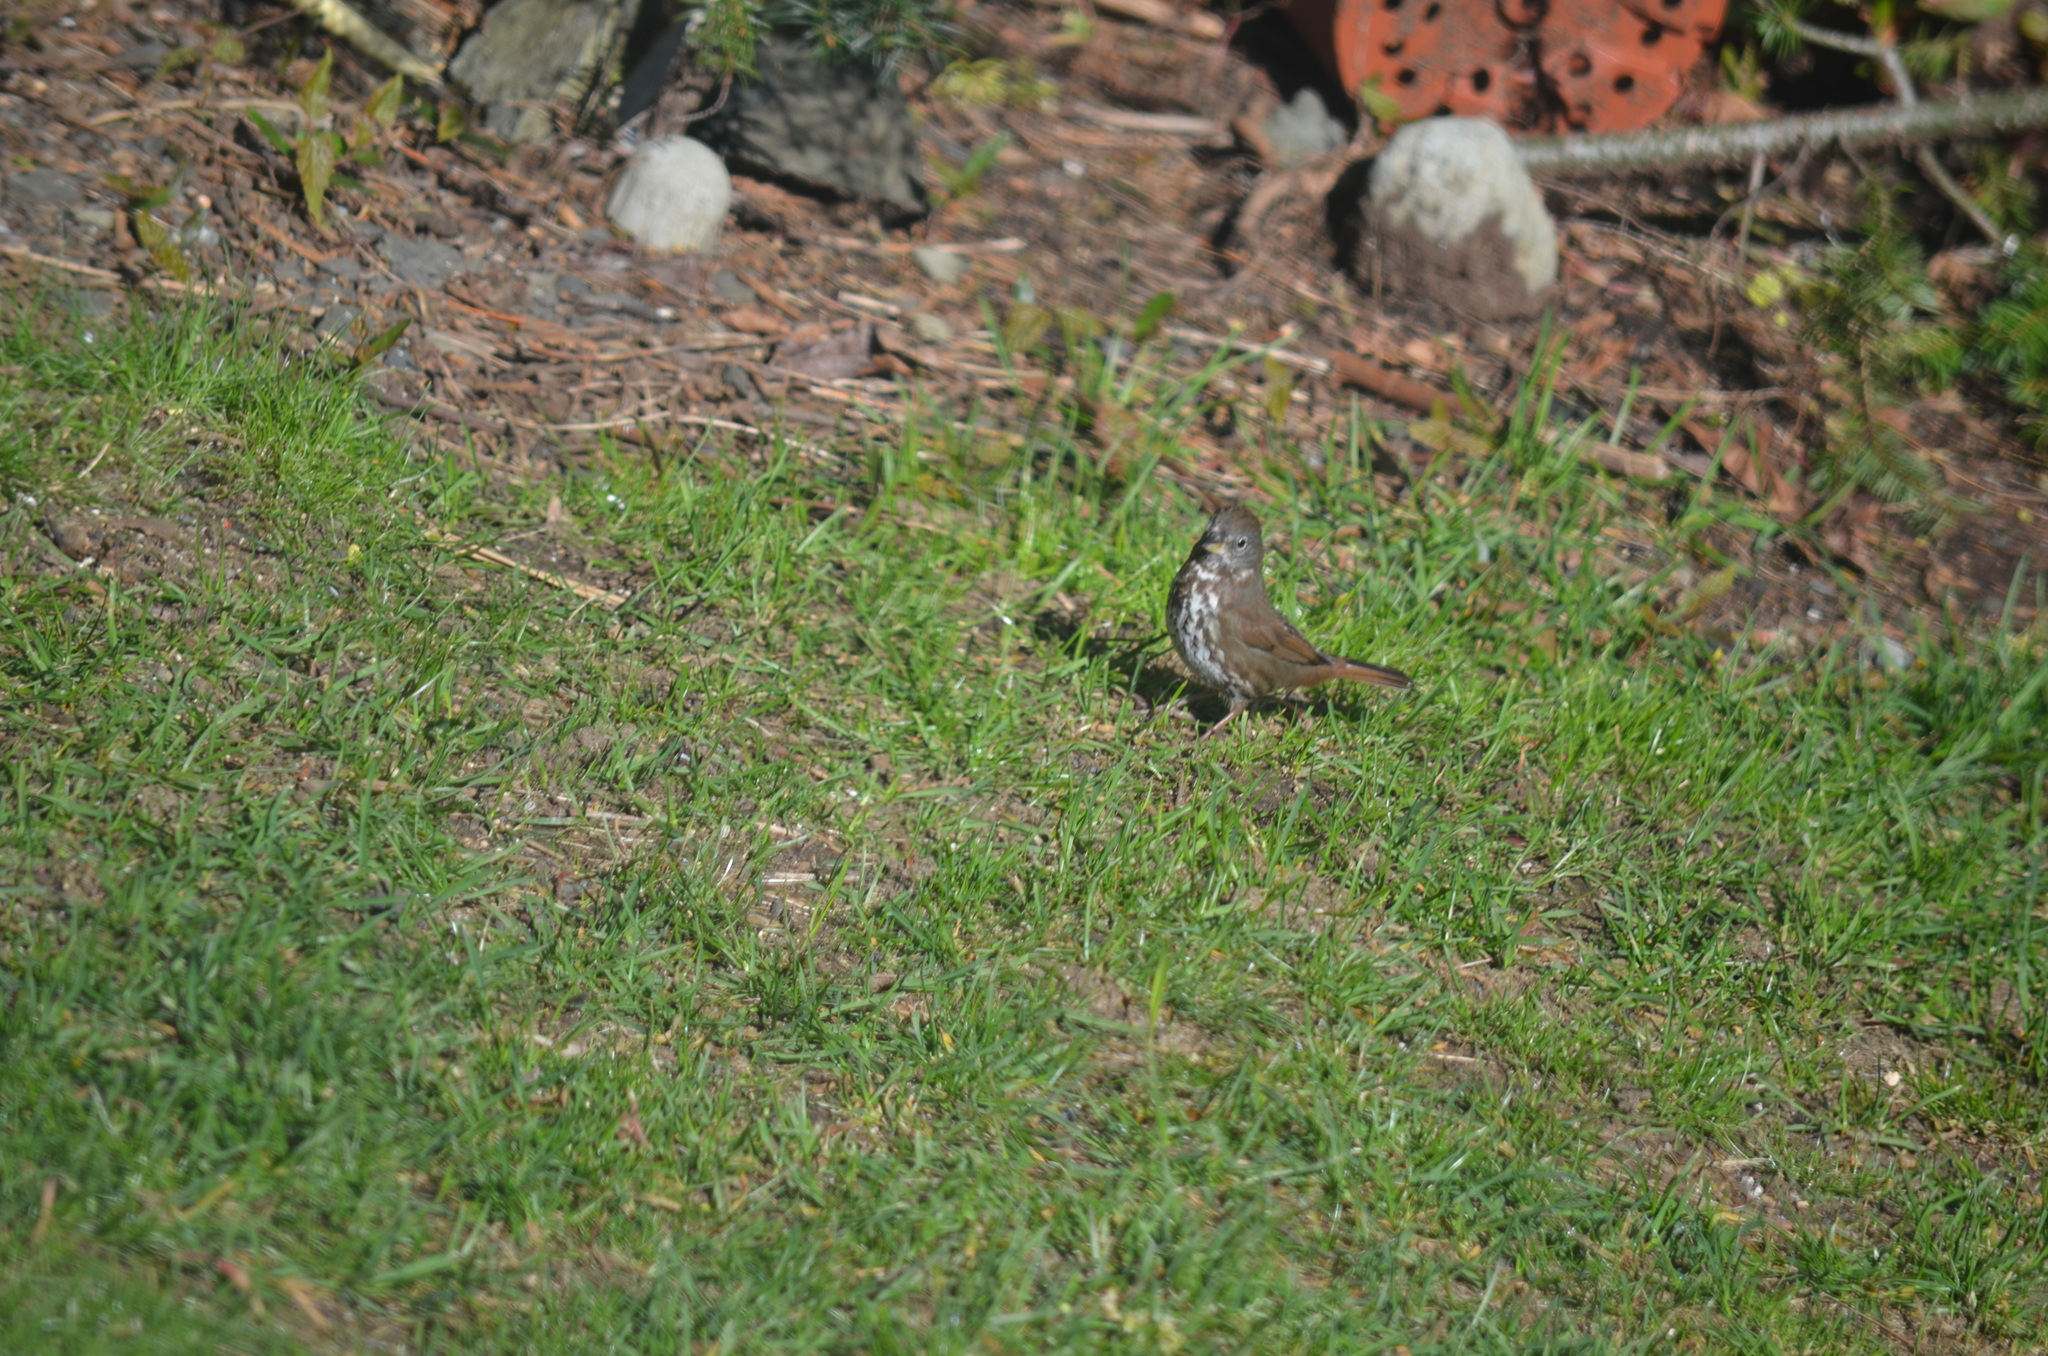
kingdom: Animalia
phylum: Chordata
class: Aves
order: Passeriformes
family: Passerellidae
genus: Passerella
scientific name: Passerella iliaca
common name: Fox sparrow
